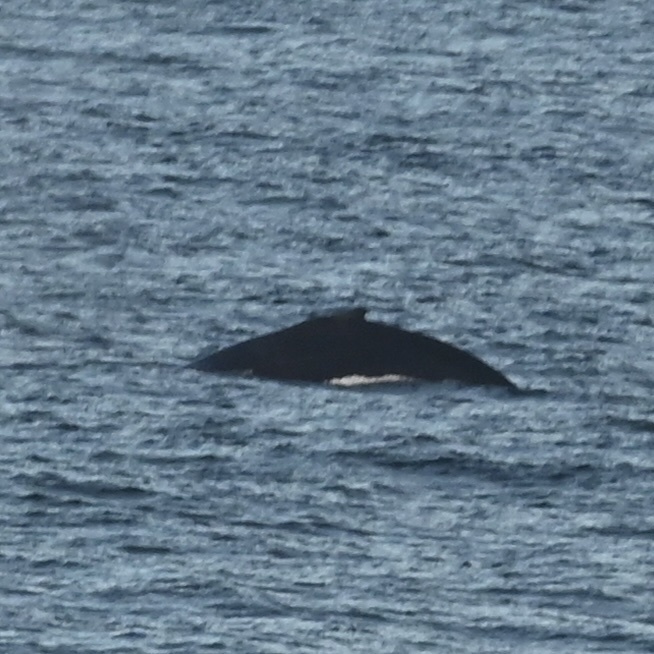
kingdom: Animalia
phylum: Chordata
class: Mammalia
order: Cetacea
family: Balaenopteridae
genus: Megaptera
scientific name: Megaptera novaeangliae
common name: Humpback whale
